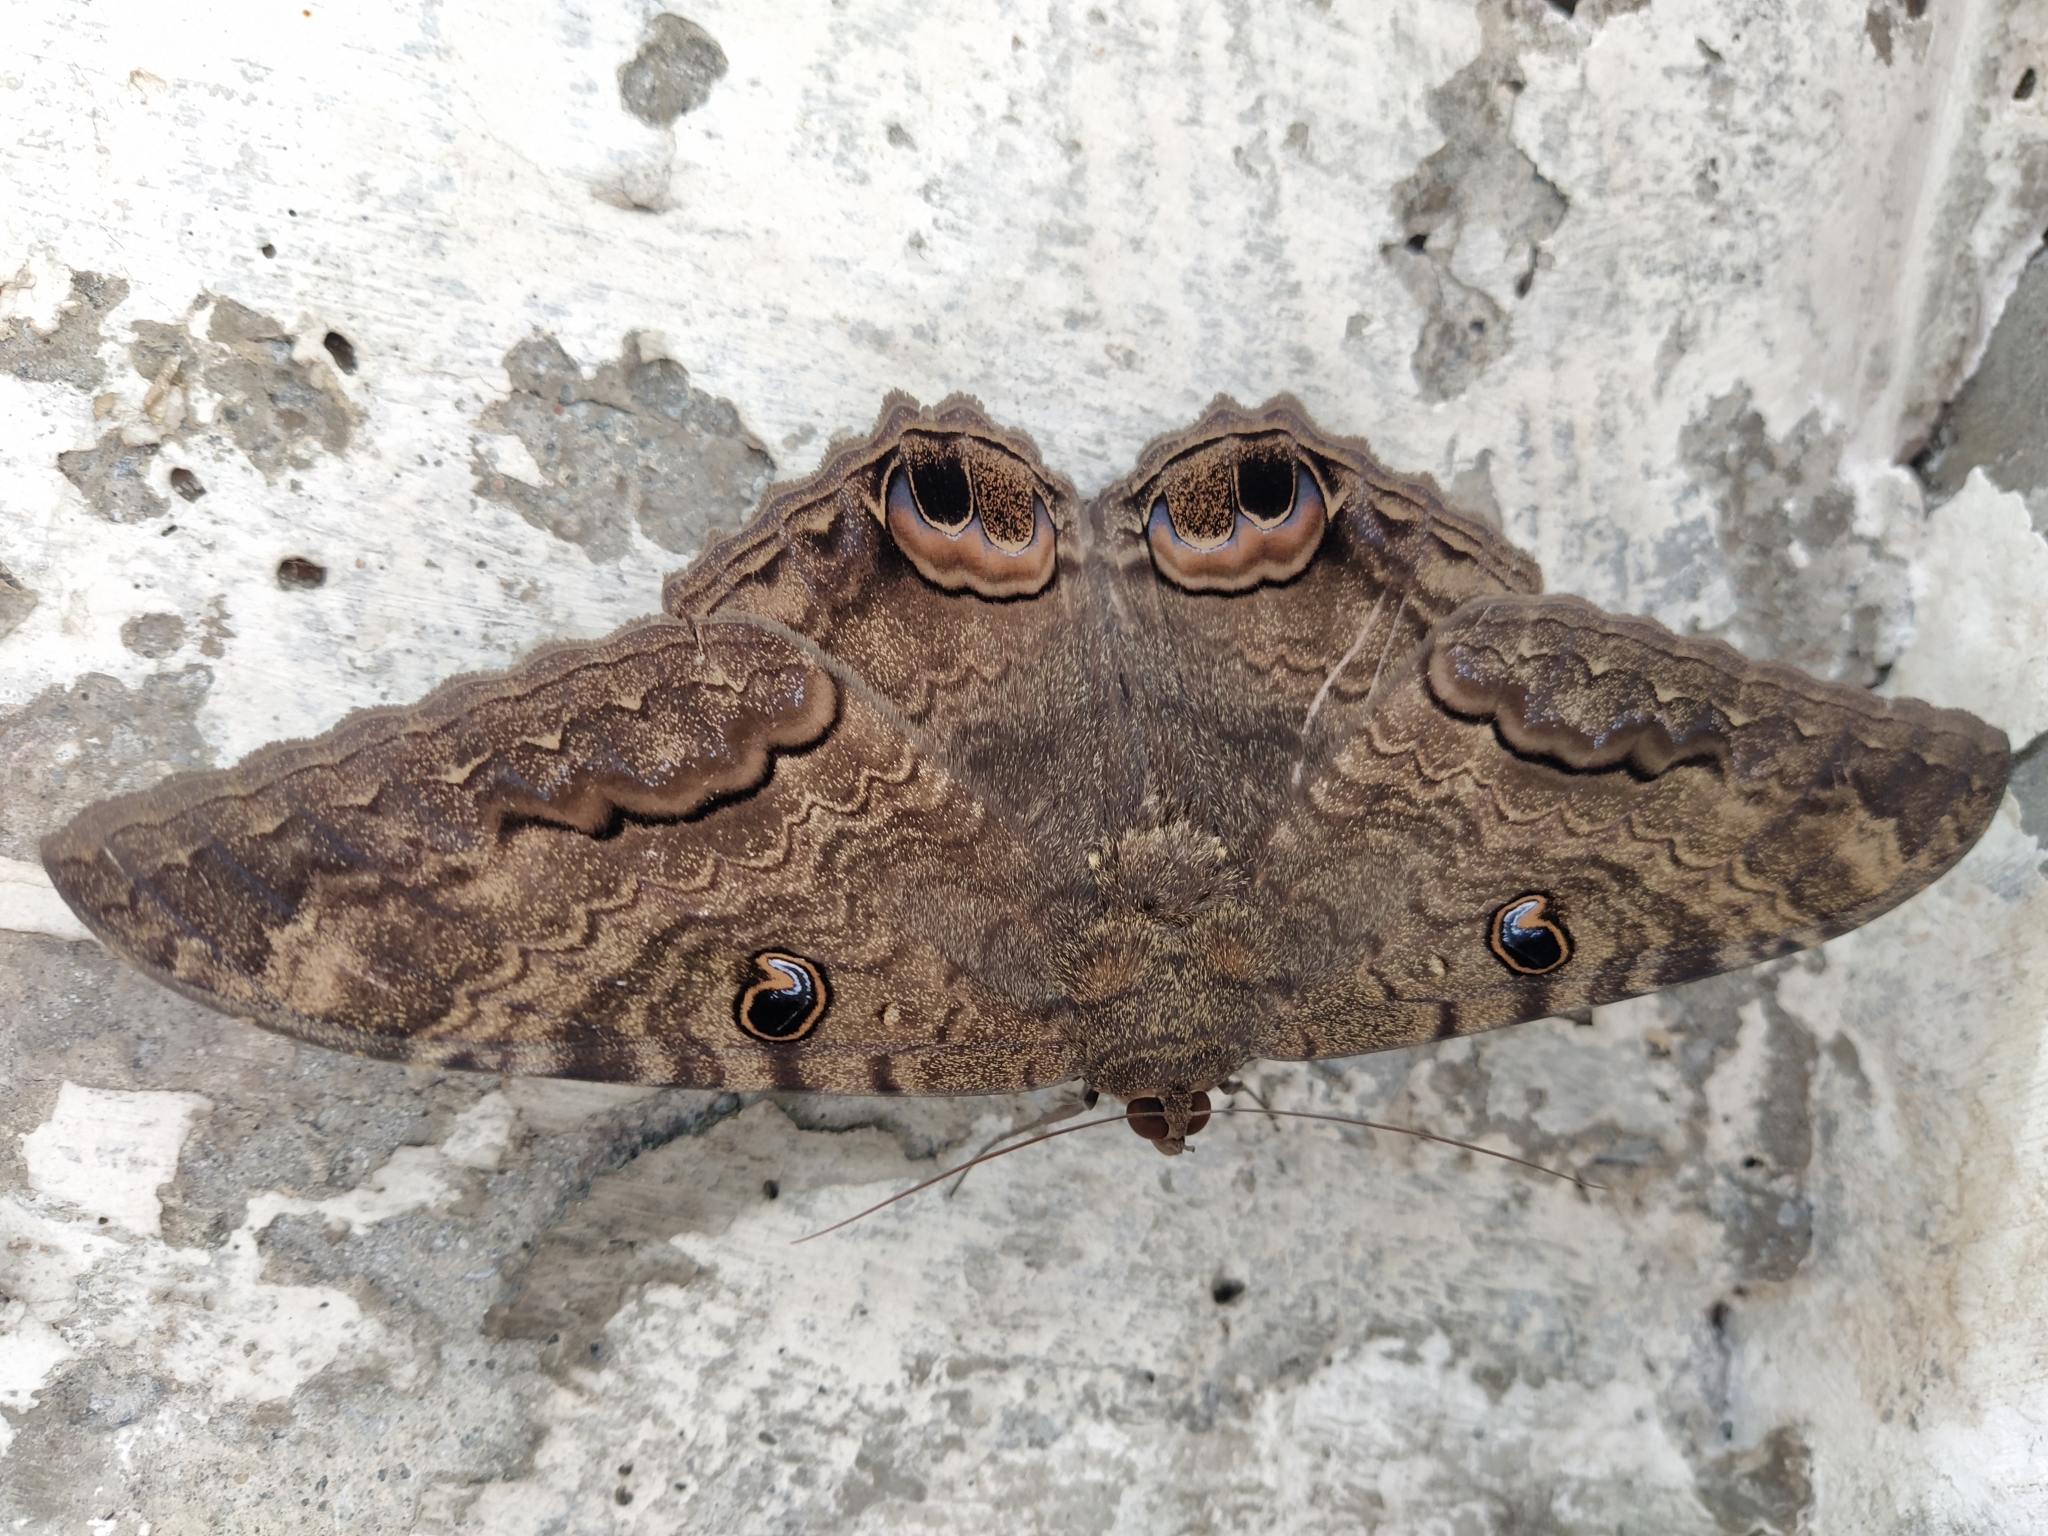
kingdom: Animalia
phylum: Arthropoda
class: Insecta
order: Lepidoptera
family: Erebidae
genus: Ascalapha
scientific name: Ascalapha odorata
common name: Black witch
